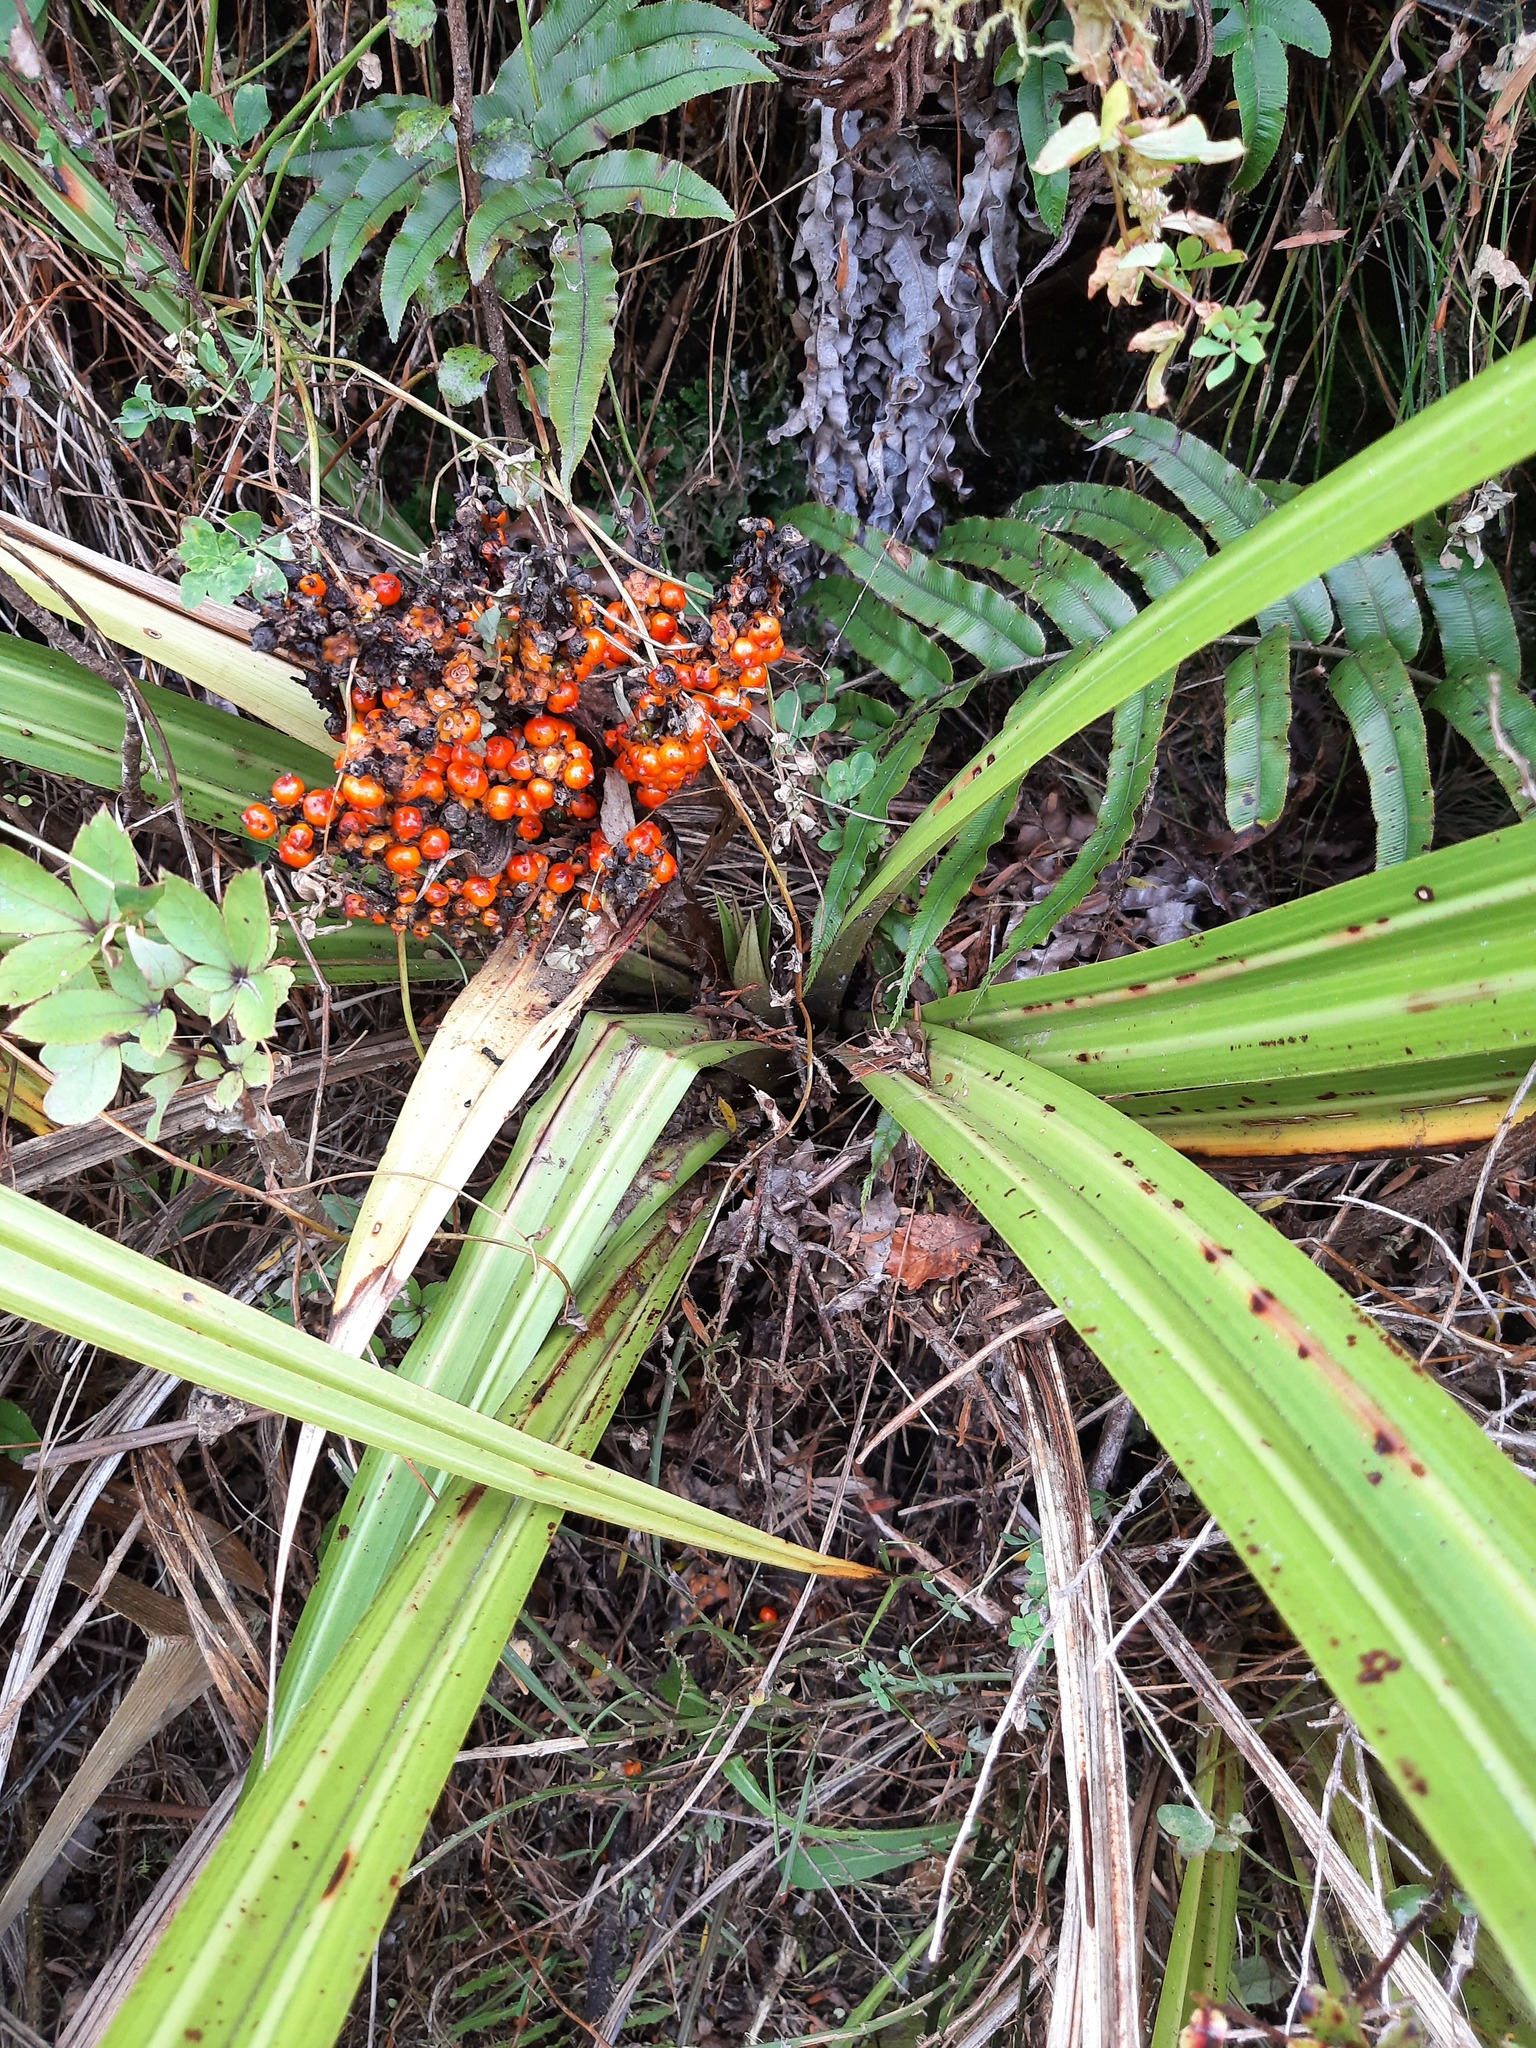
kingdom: Plantae
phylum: Tracheophyta
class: Liliopsida
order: Asparagales
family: Asteliaceae
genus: Astelia
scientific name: Astelia fragrans
